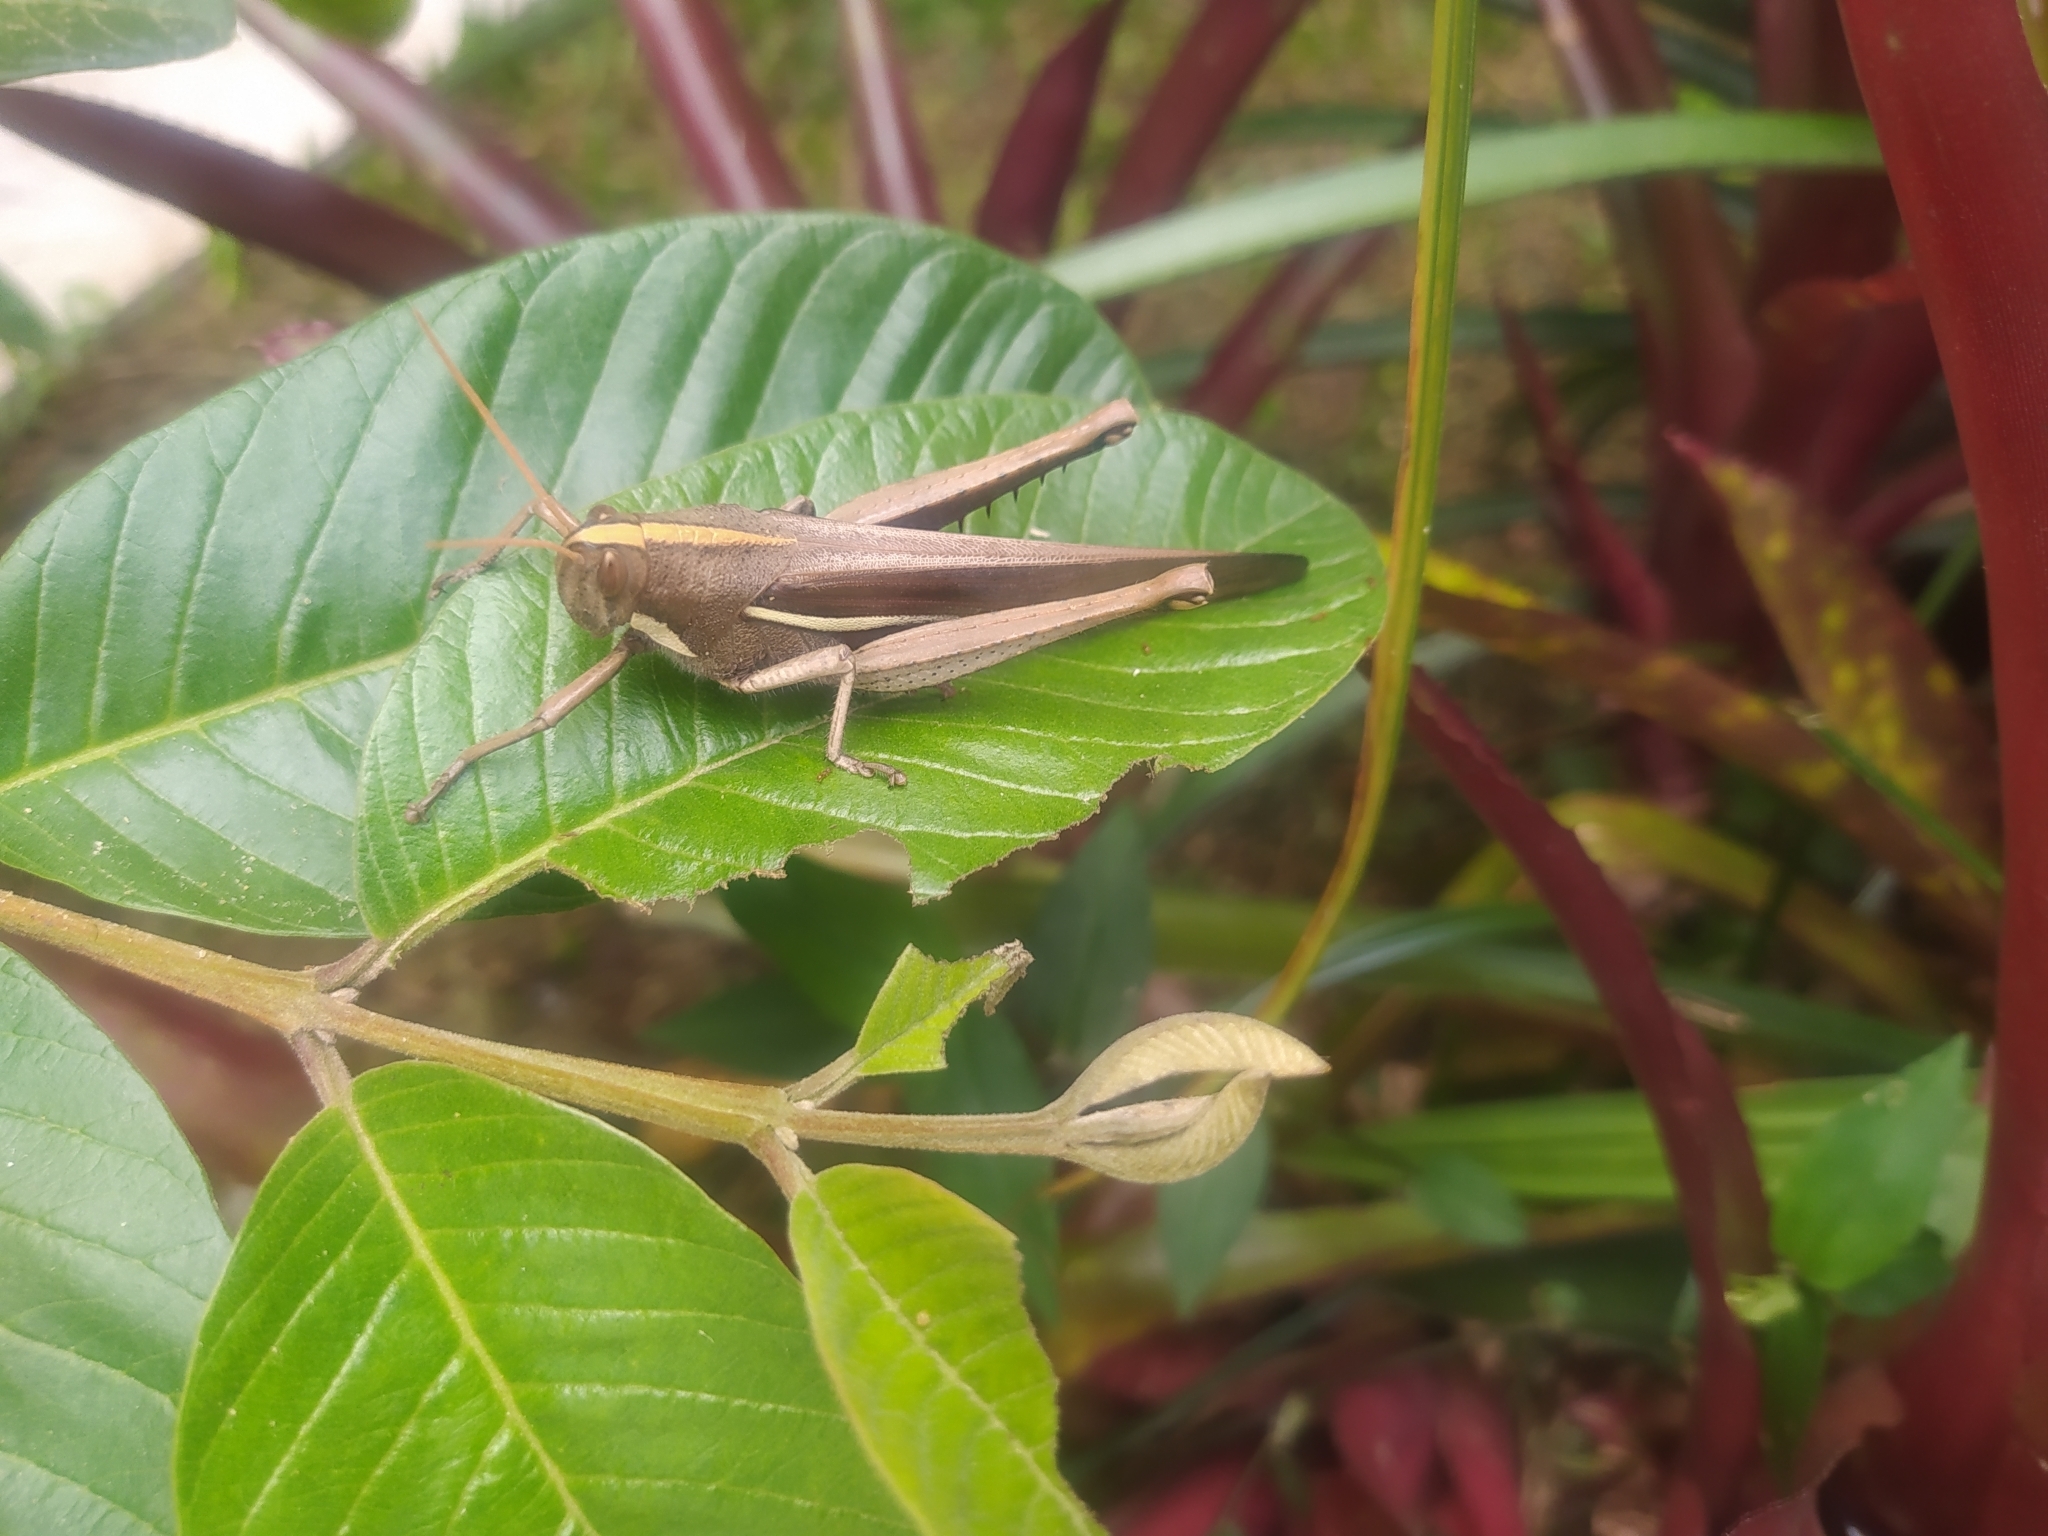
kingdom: Animalia
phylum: Arthropoda
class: Insecta
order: Orthoptera
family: Acrididae
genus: Schistocerca
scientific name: Schistocerca flavofasciata
